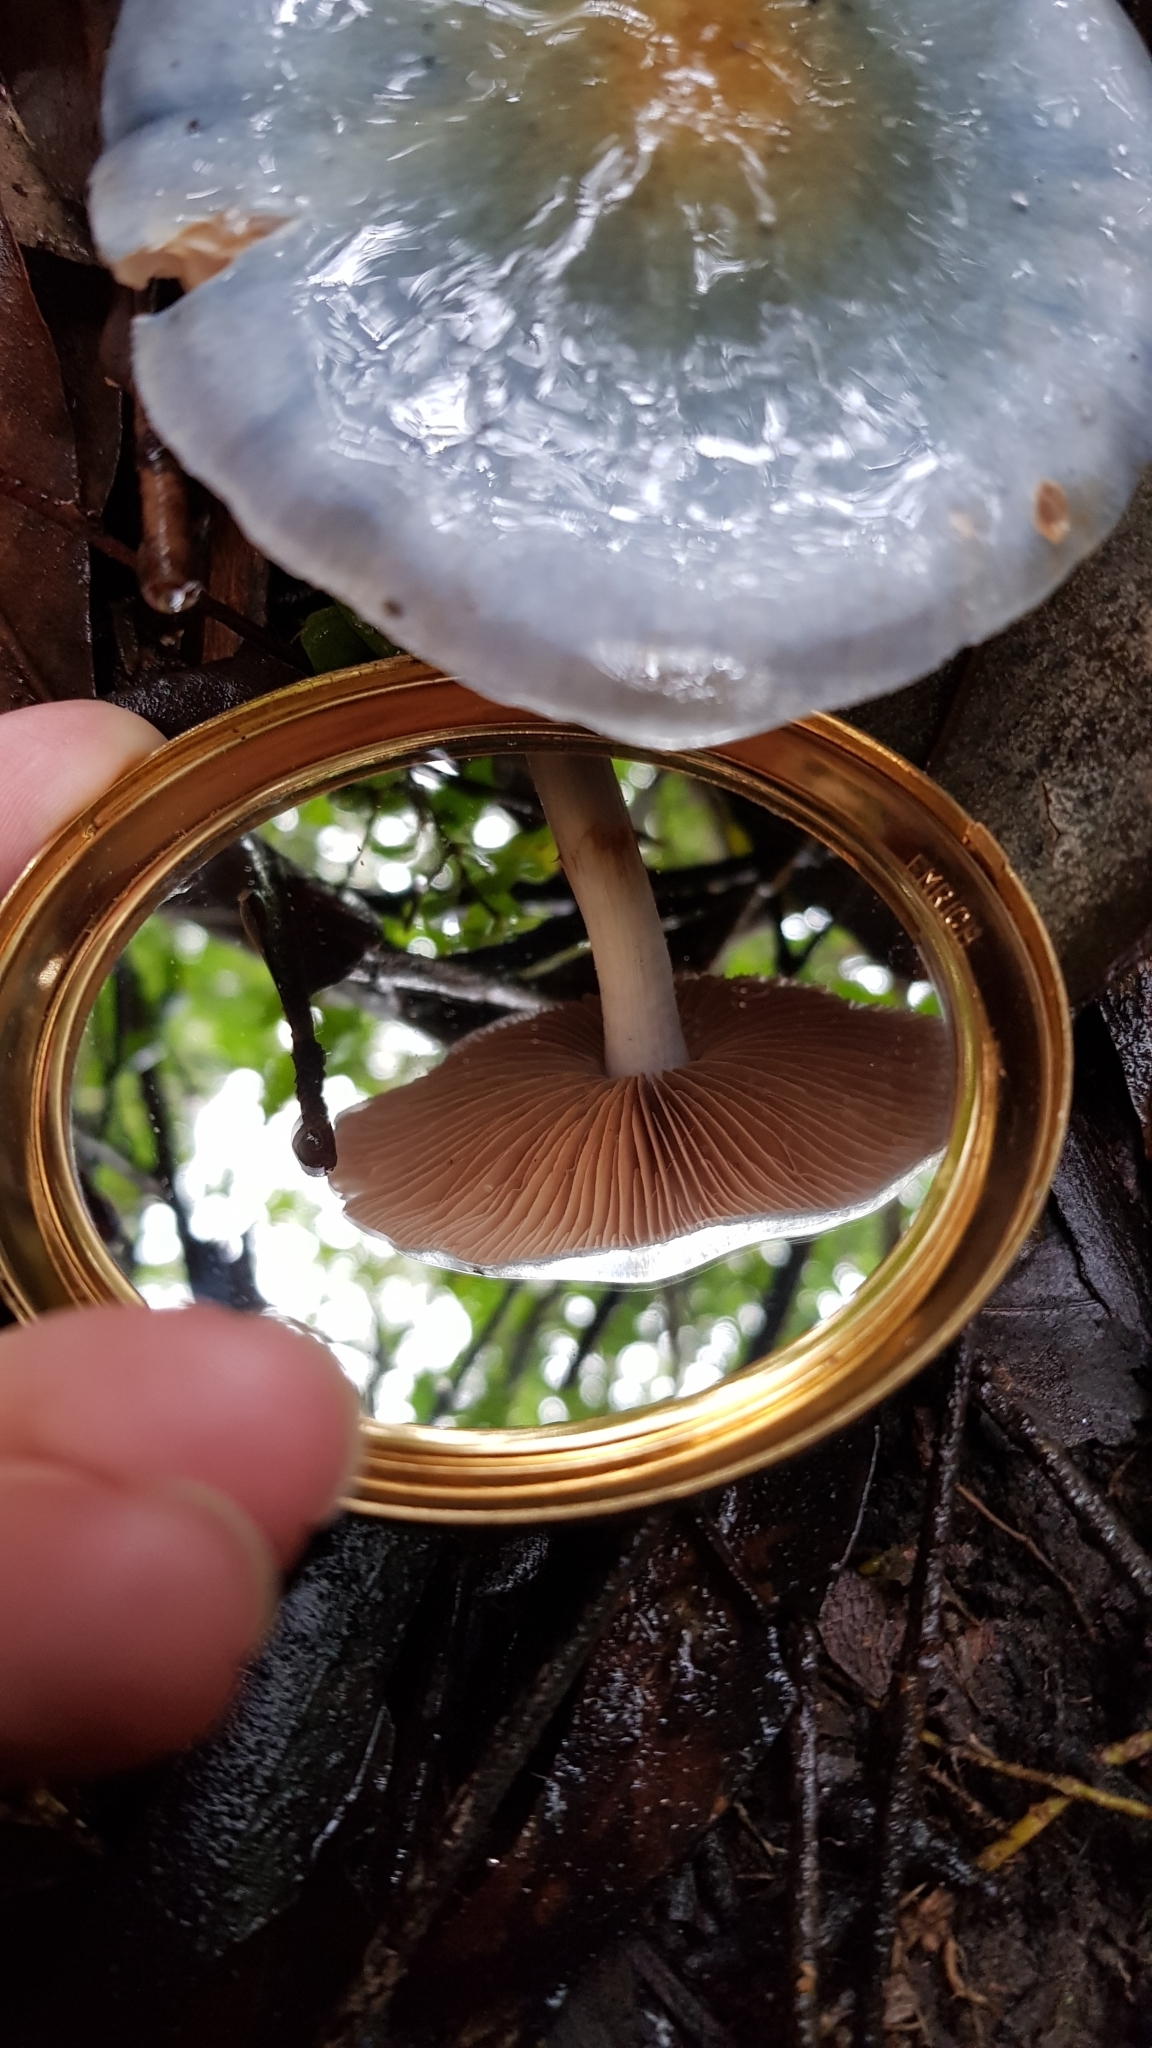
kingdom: Fungi
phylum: Basidiomycota
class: Agaricomycetes
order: Agaricales
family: Cortinariaceae
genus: Cortinarius
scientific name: Cortinarius rotundisporus
